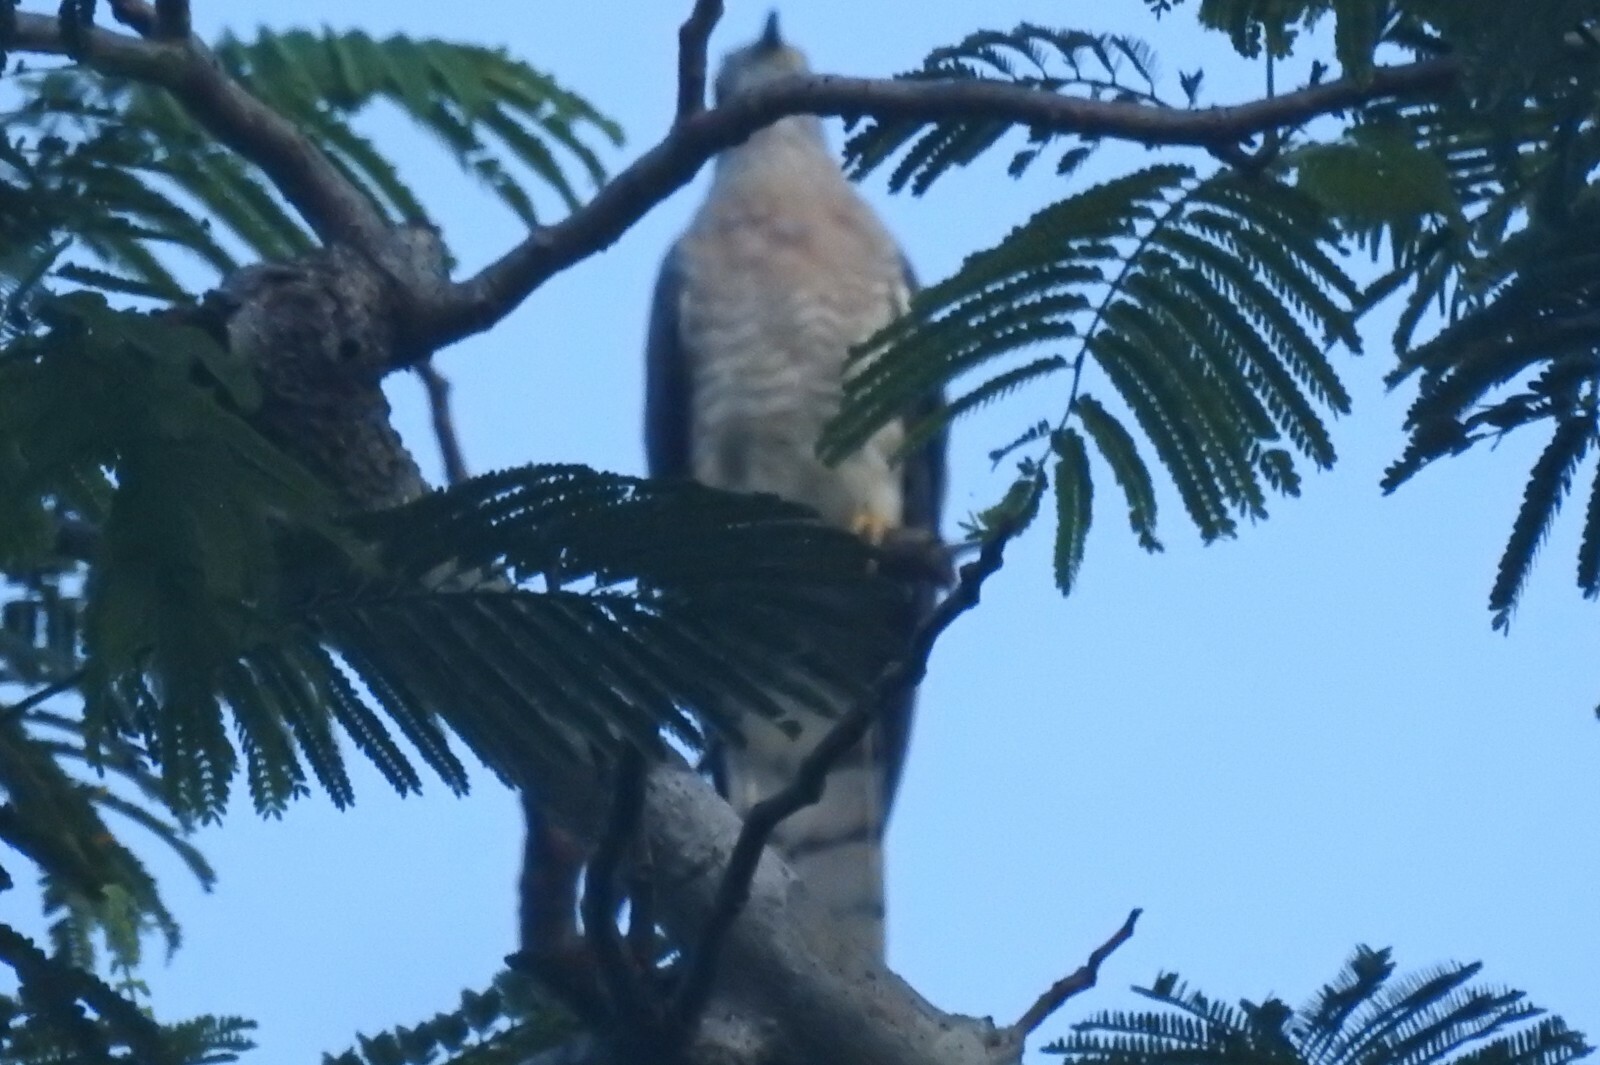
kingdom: Animalia
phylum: Chordata
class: Aves
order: Cuculiformes
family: Cuculidae
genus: Cuculus
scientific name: Cuculus varius
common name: Common hawk cuckoo
